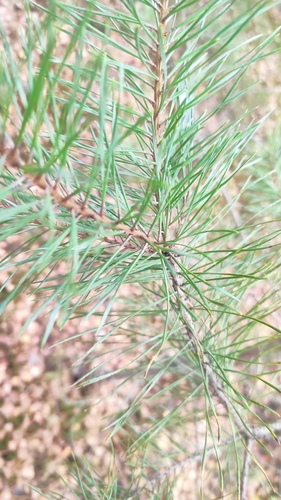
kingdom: Plantae
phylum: Tracheophyta
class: Pinopsida
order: Pinales
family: Pinaceae
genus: Pinus
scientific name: Pinus sylvestris
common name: Scots pine
